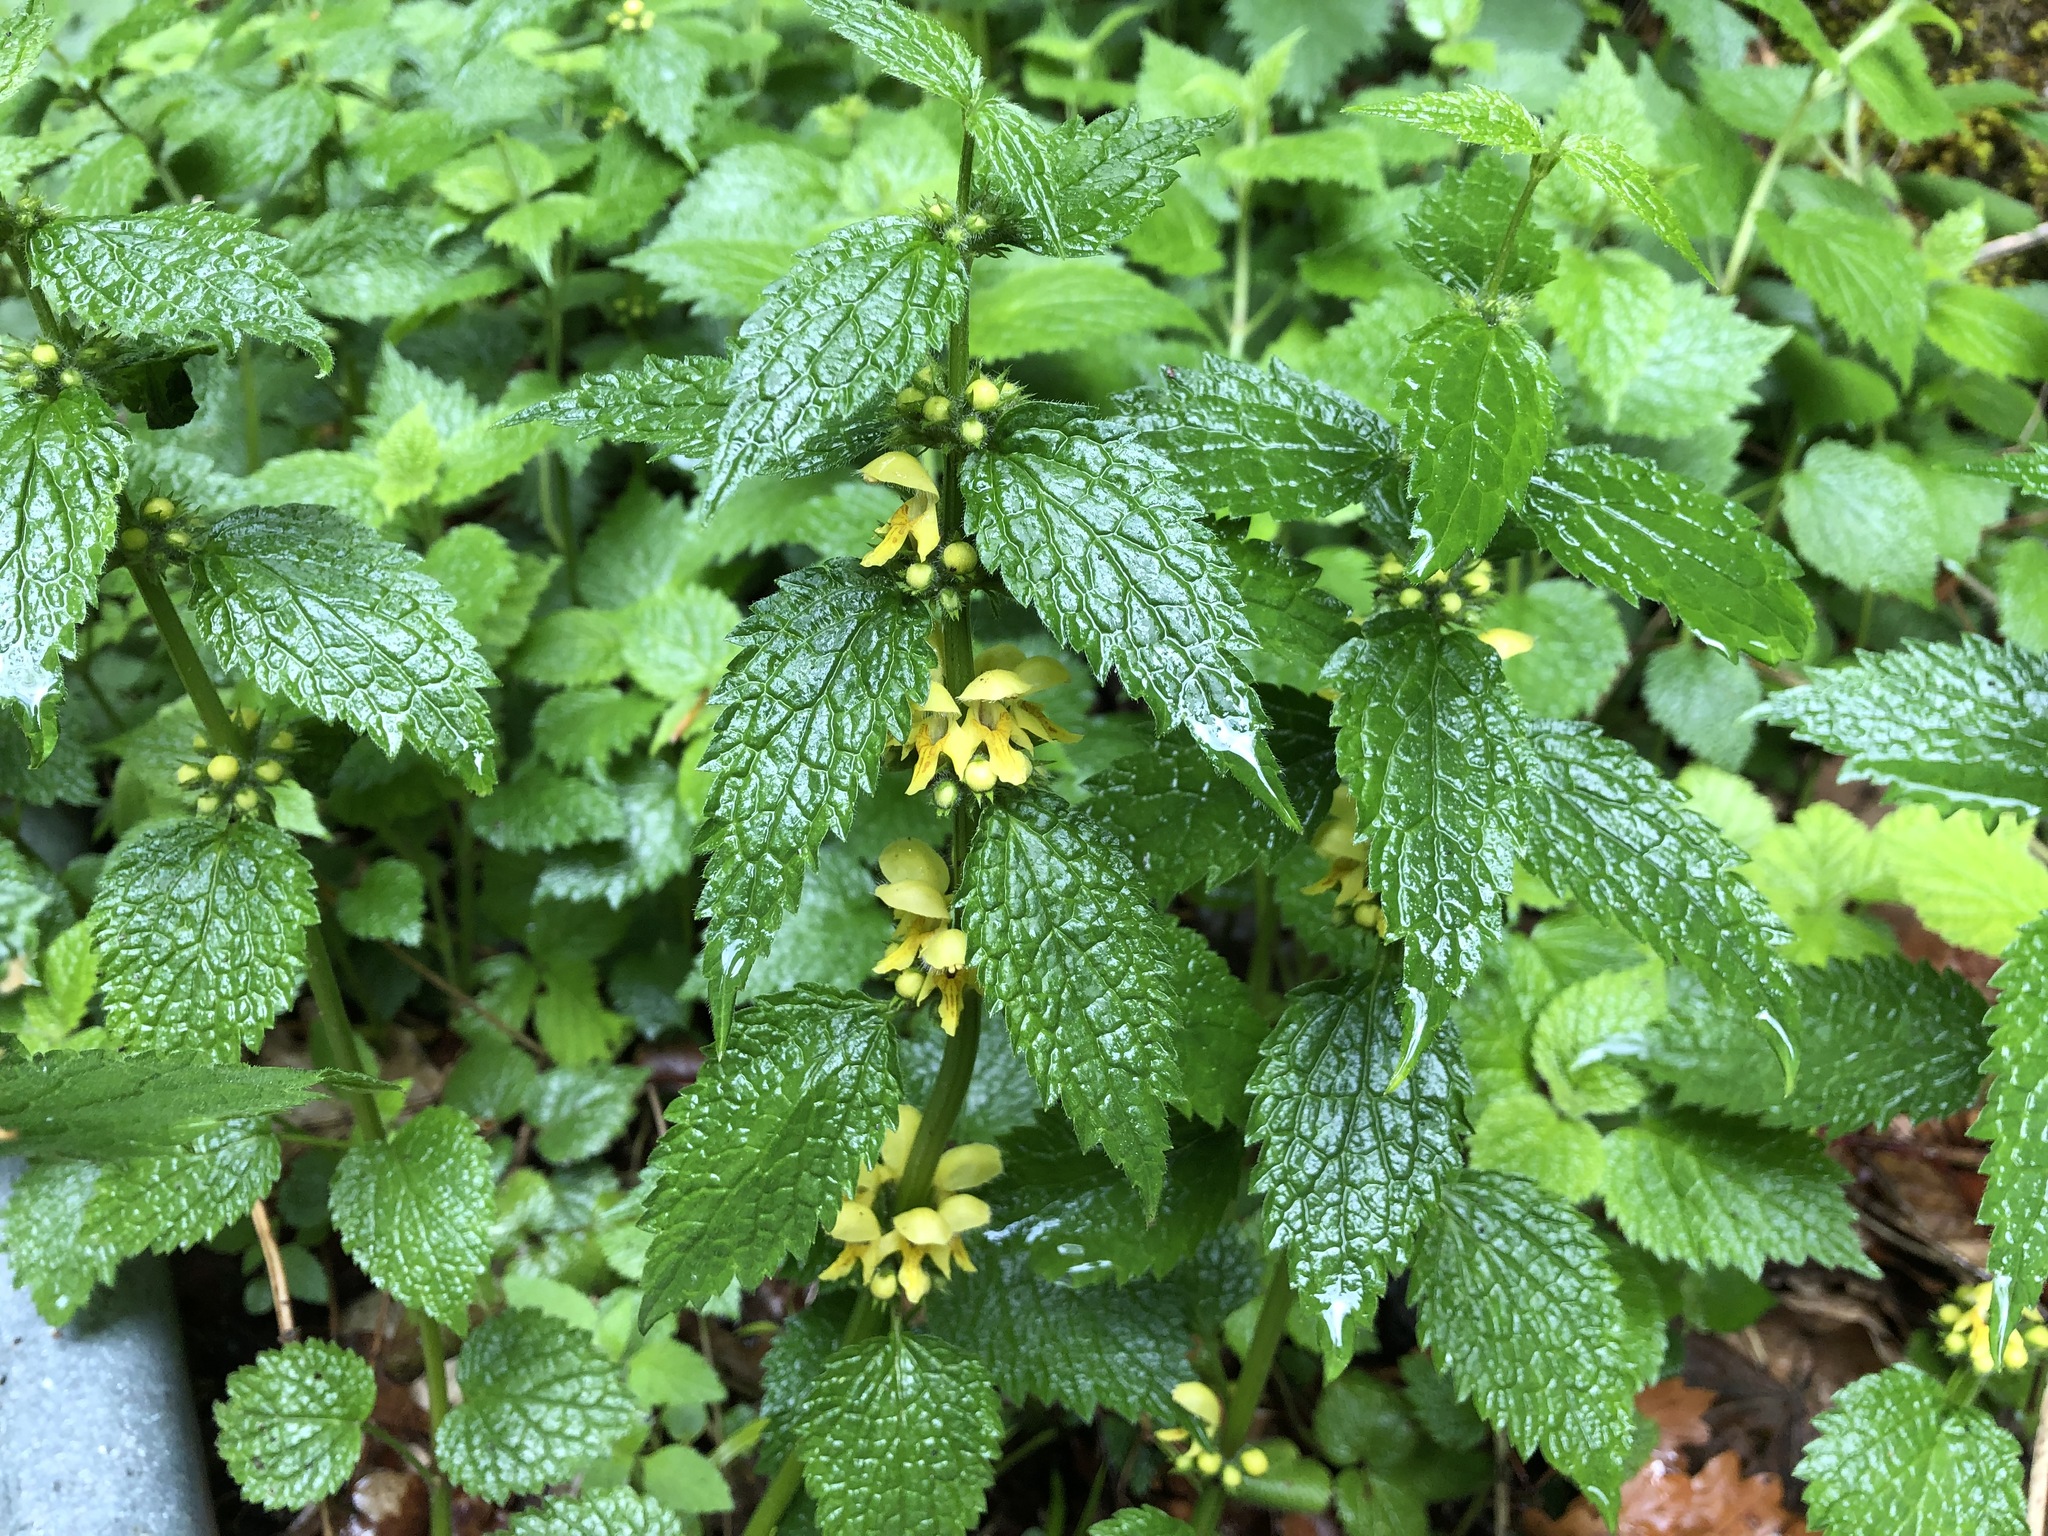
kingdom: Plantae
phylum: Tracheophyta
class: Magnoliopsida
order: Lamiales
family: Lamiaceae
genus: Lamium
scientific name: Lamium galeobdolon
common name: Yellow archangel
